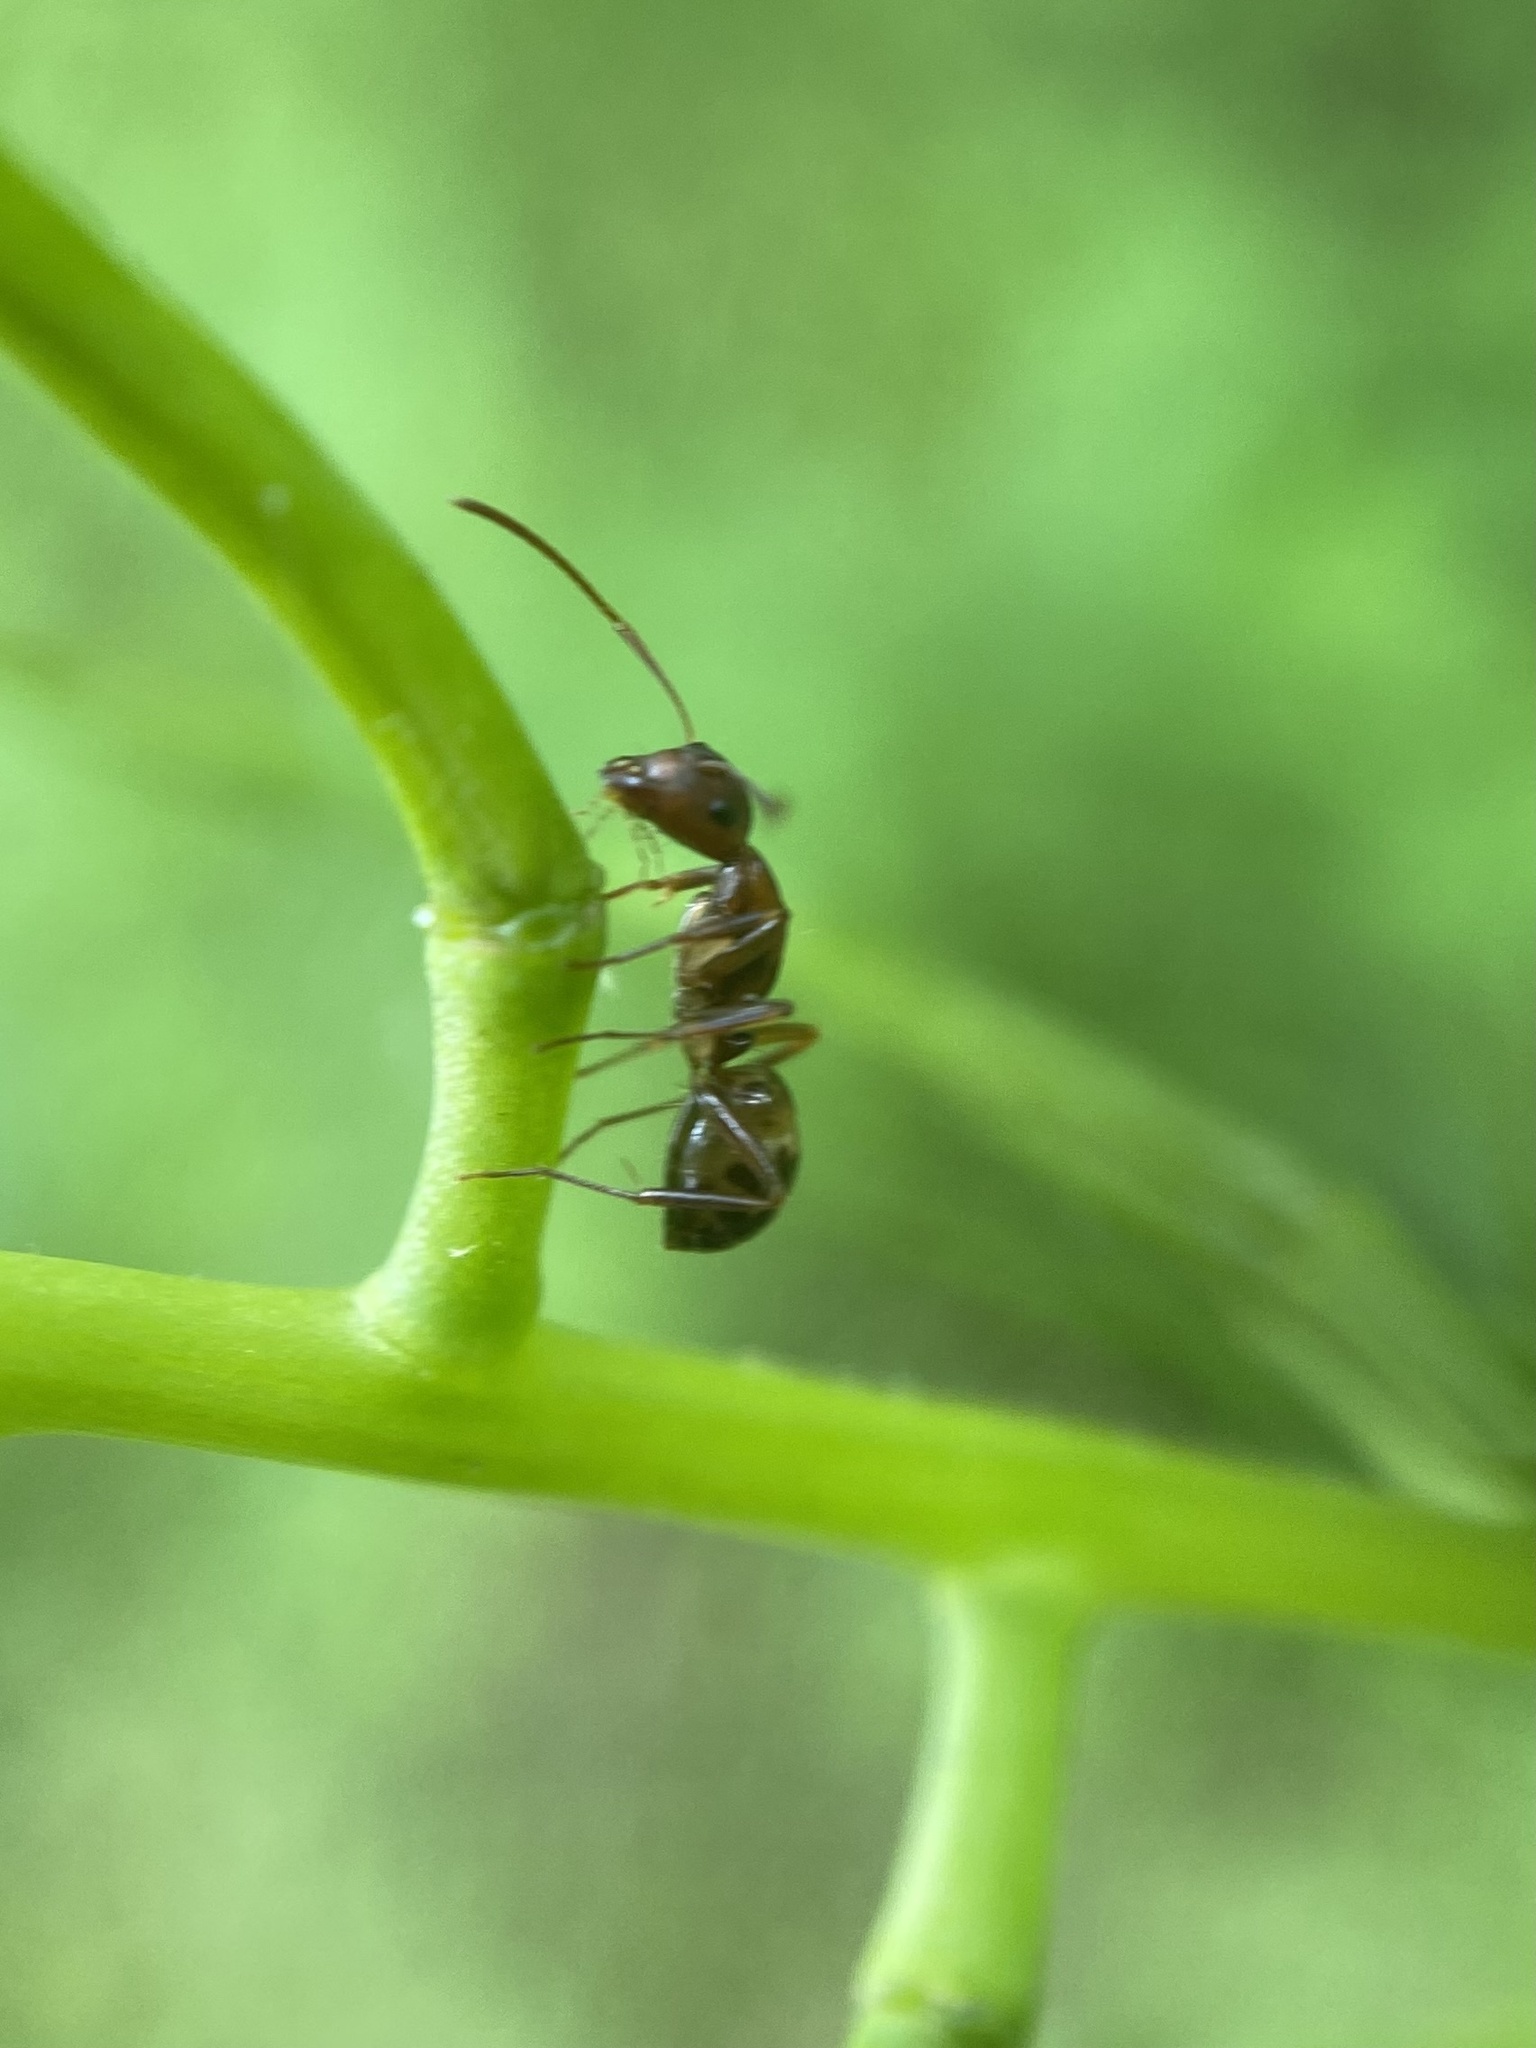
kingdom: Animalia
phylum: Arthropoda
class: Insecta
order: Hymenoptera
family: Formicidae
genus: Camponotus
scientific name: Camponotus subbarbatus
